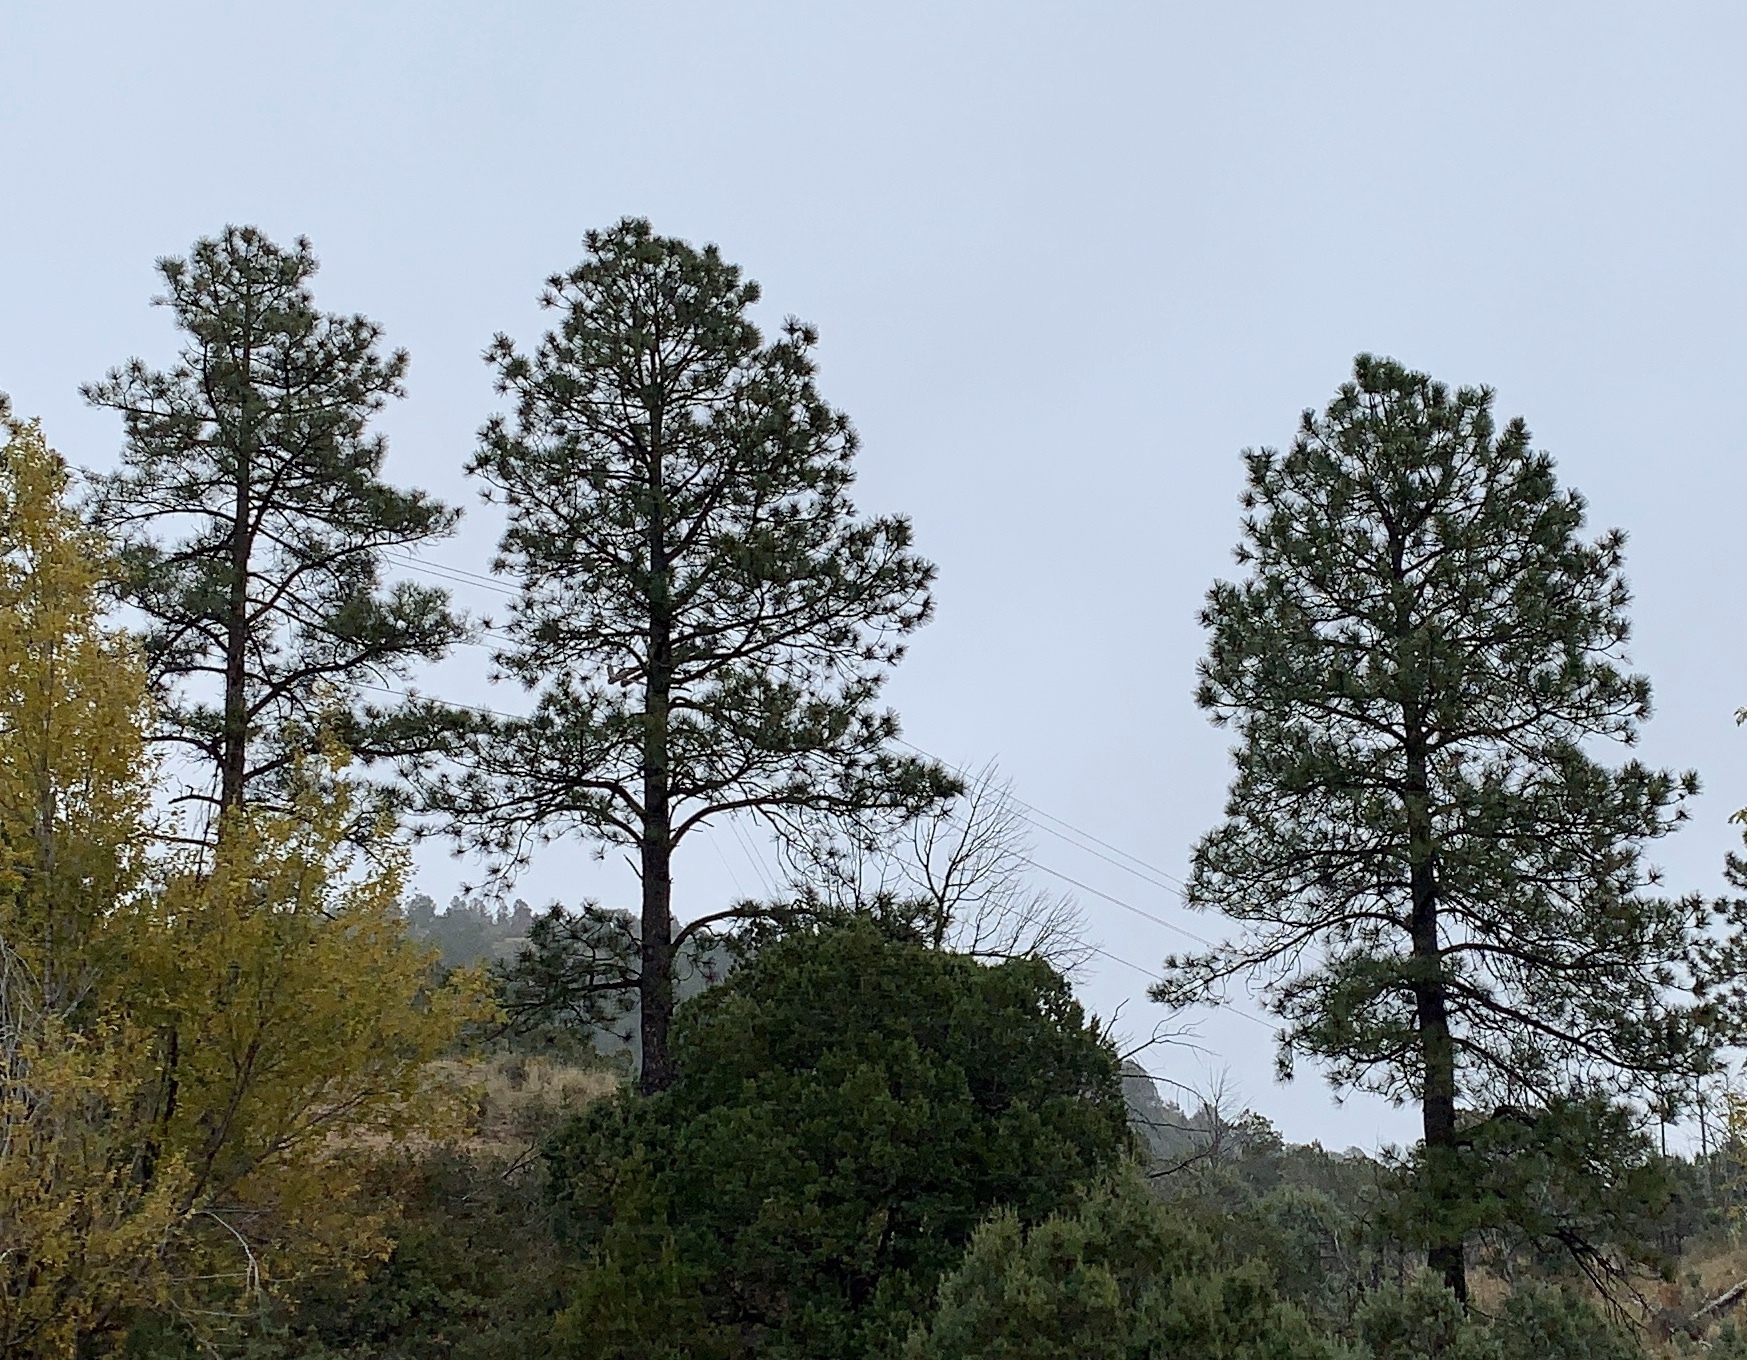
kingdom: Plantae
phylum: Tracheophyta
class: Pinopsida
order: Pinales
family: Pinaceae
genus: Pinus
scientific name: Pinus ponderosa
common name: Western yellow-pine
